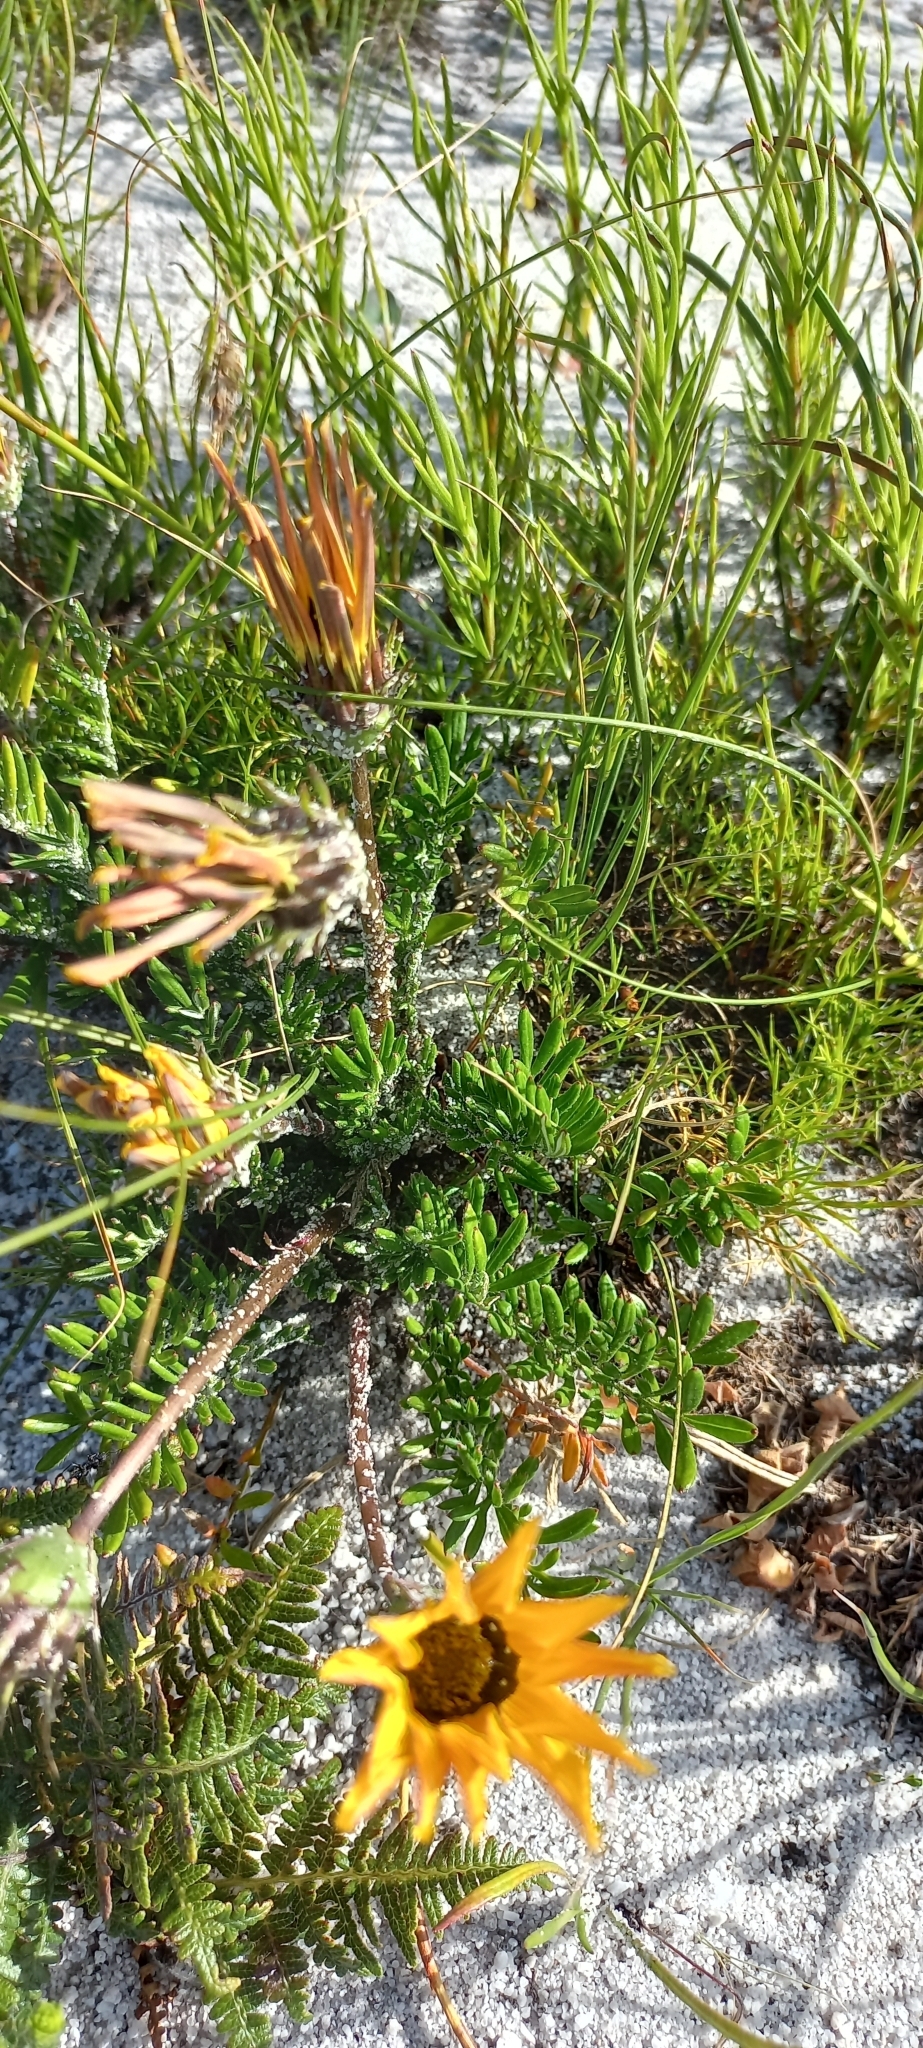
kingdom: Plantae
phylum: Tracheophyta
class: Magnoliopsida
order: Asterales
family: Asteraceae
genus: Gazania
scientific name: Gazania pectinata
